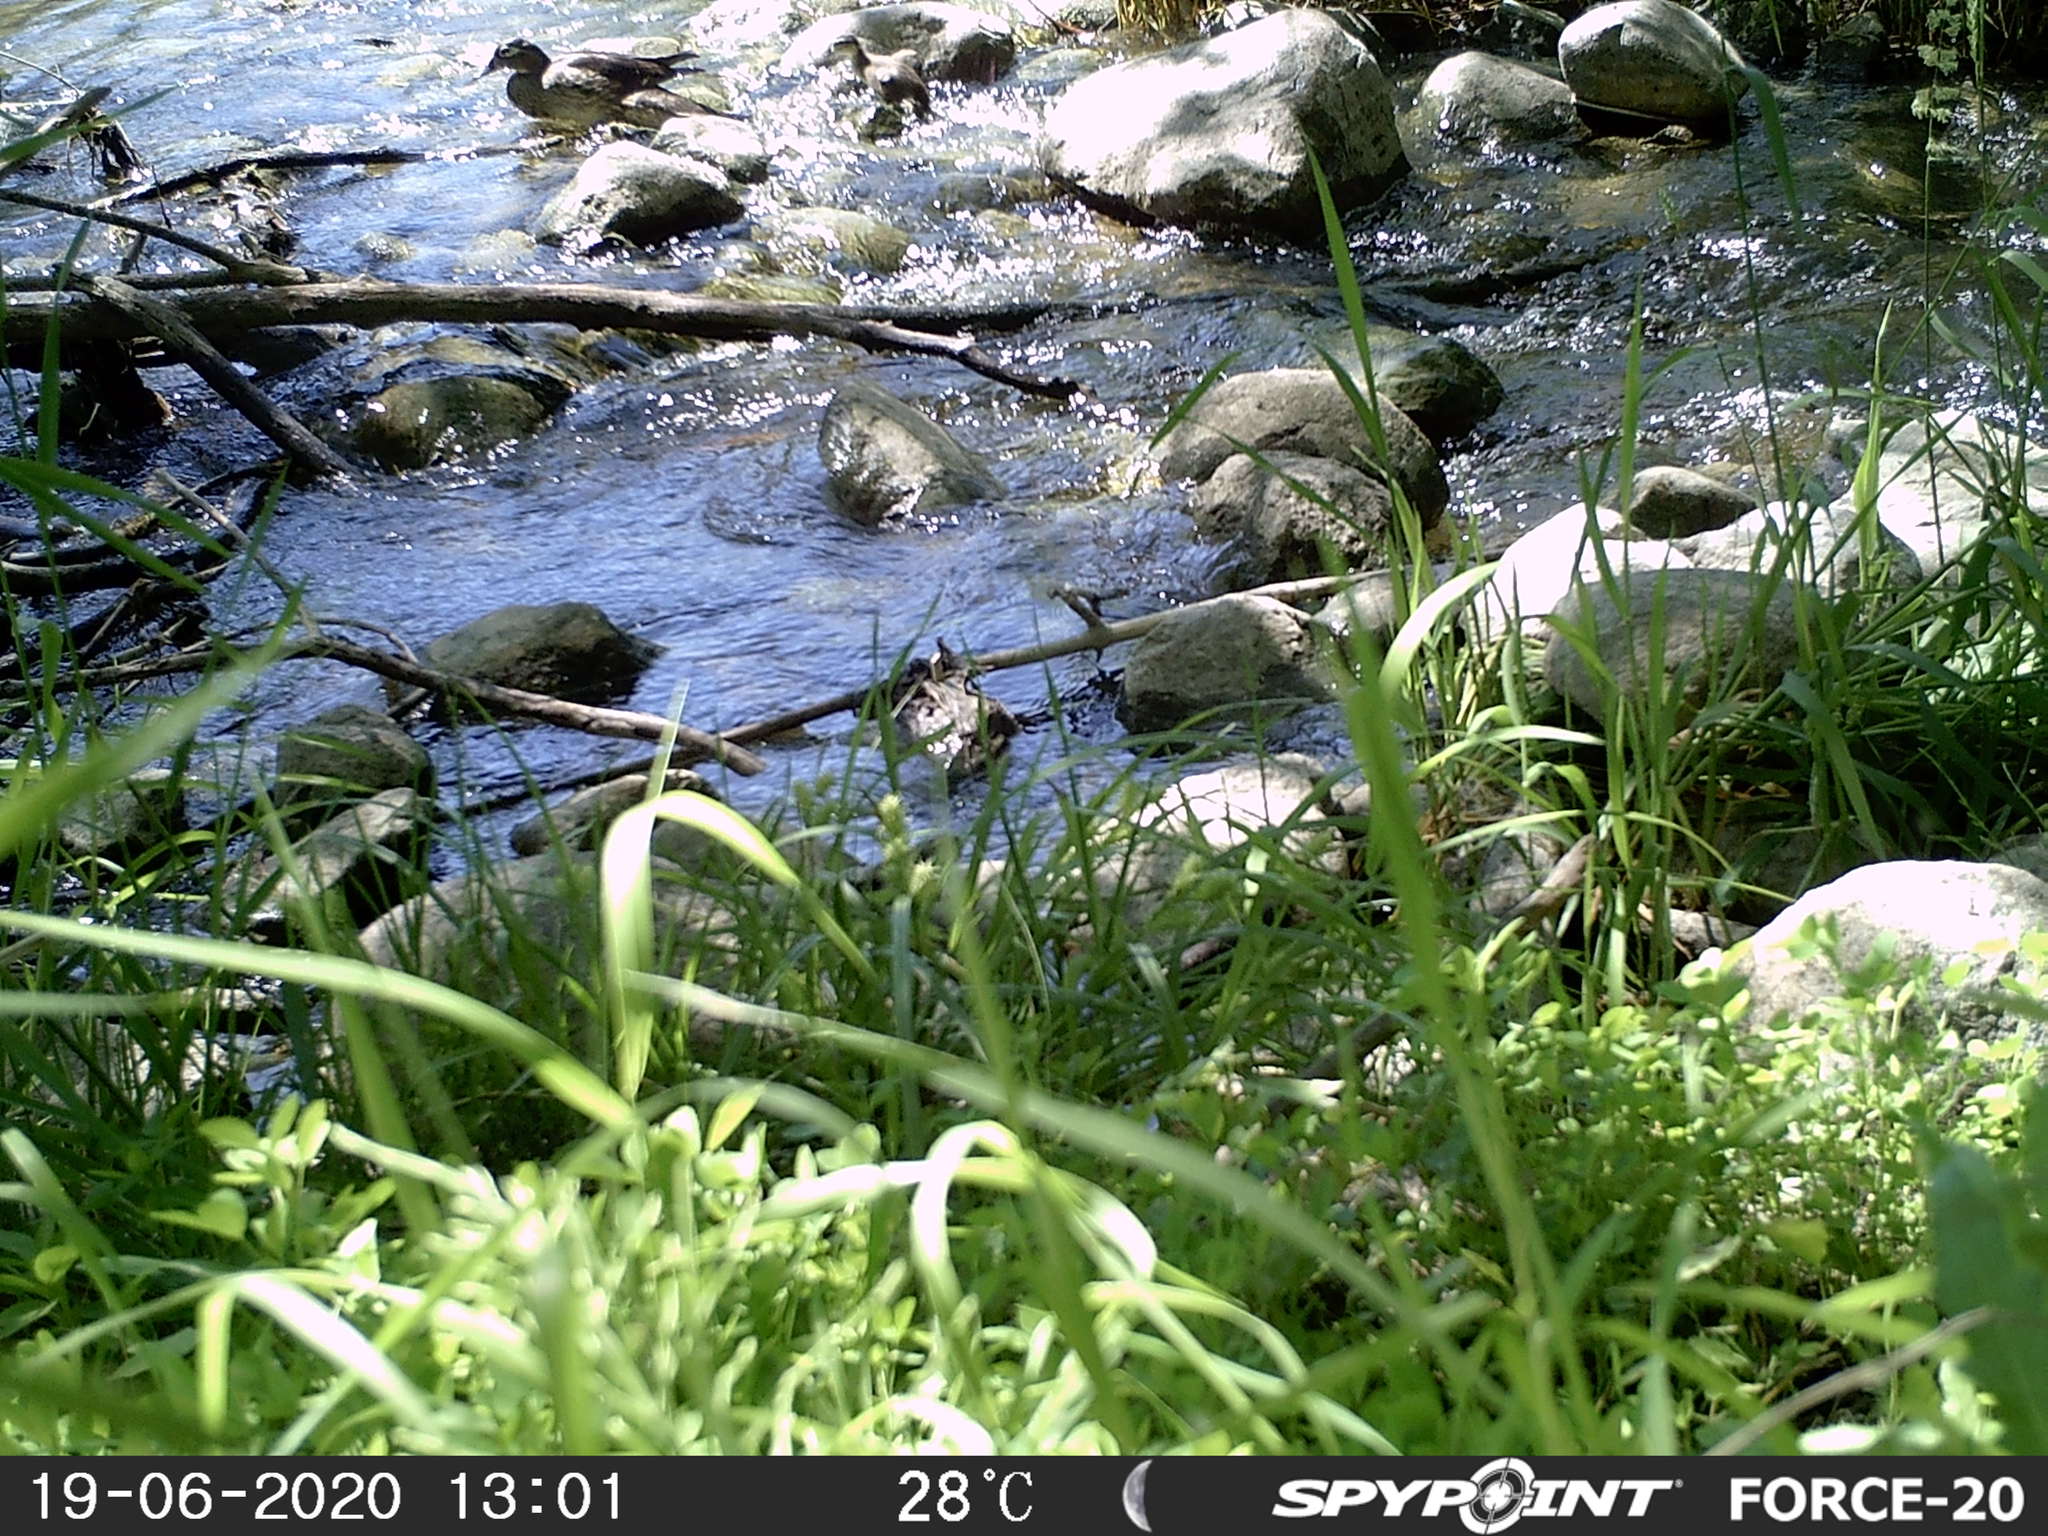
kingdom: Animalia
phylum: Chordata
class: Aves
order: Anseriformes
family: Anatidae
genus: Aix
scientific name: Aix sponsa
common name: Wood duck
